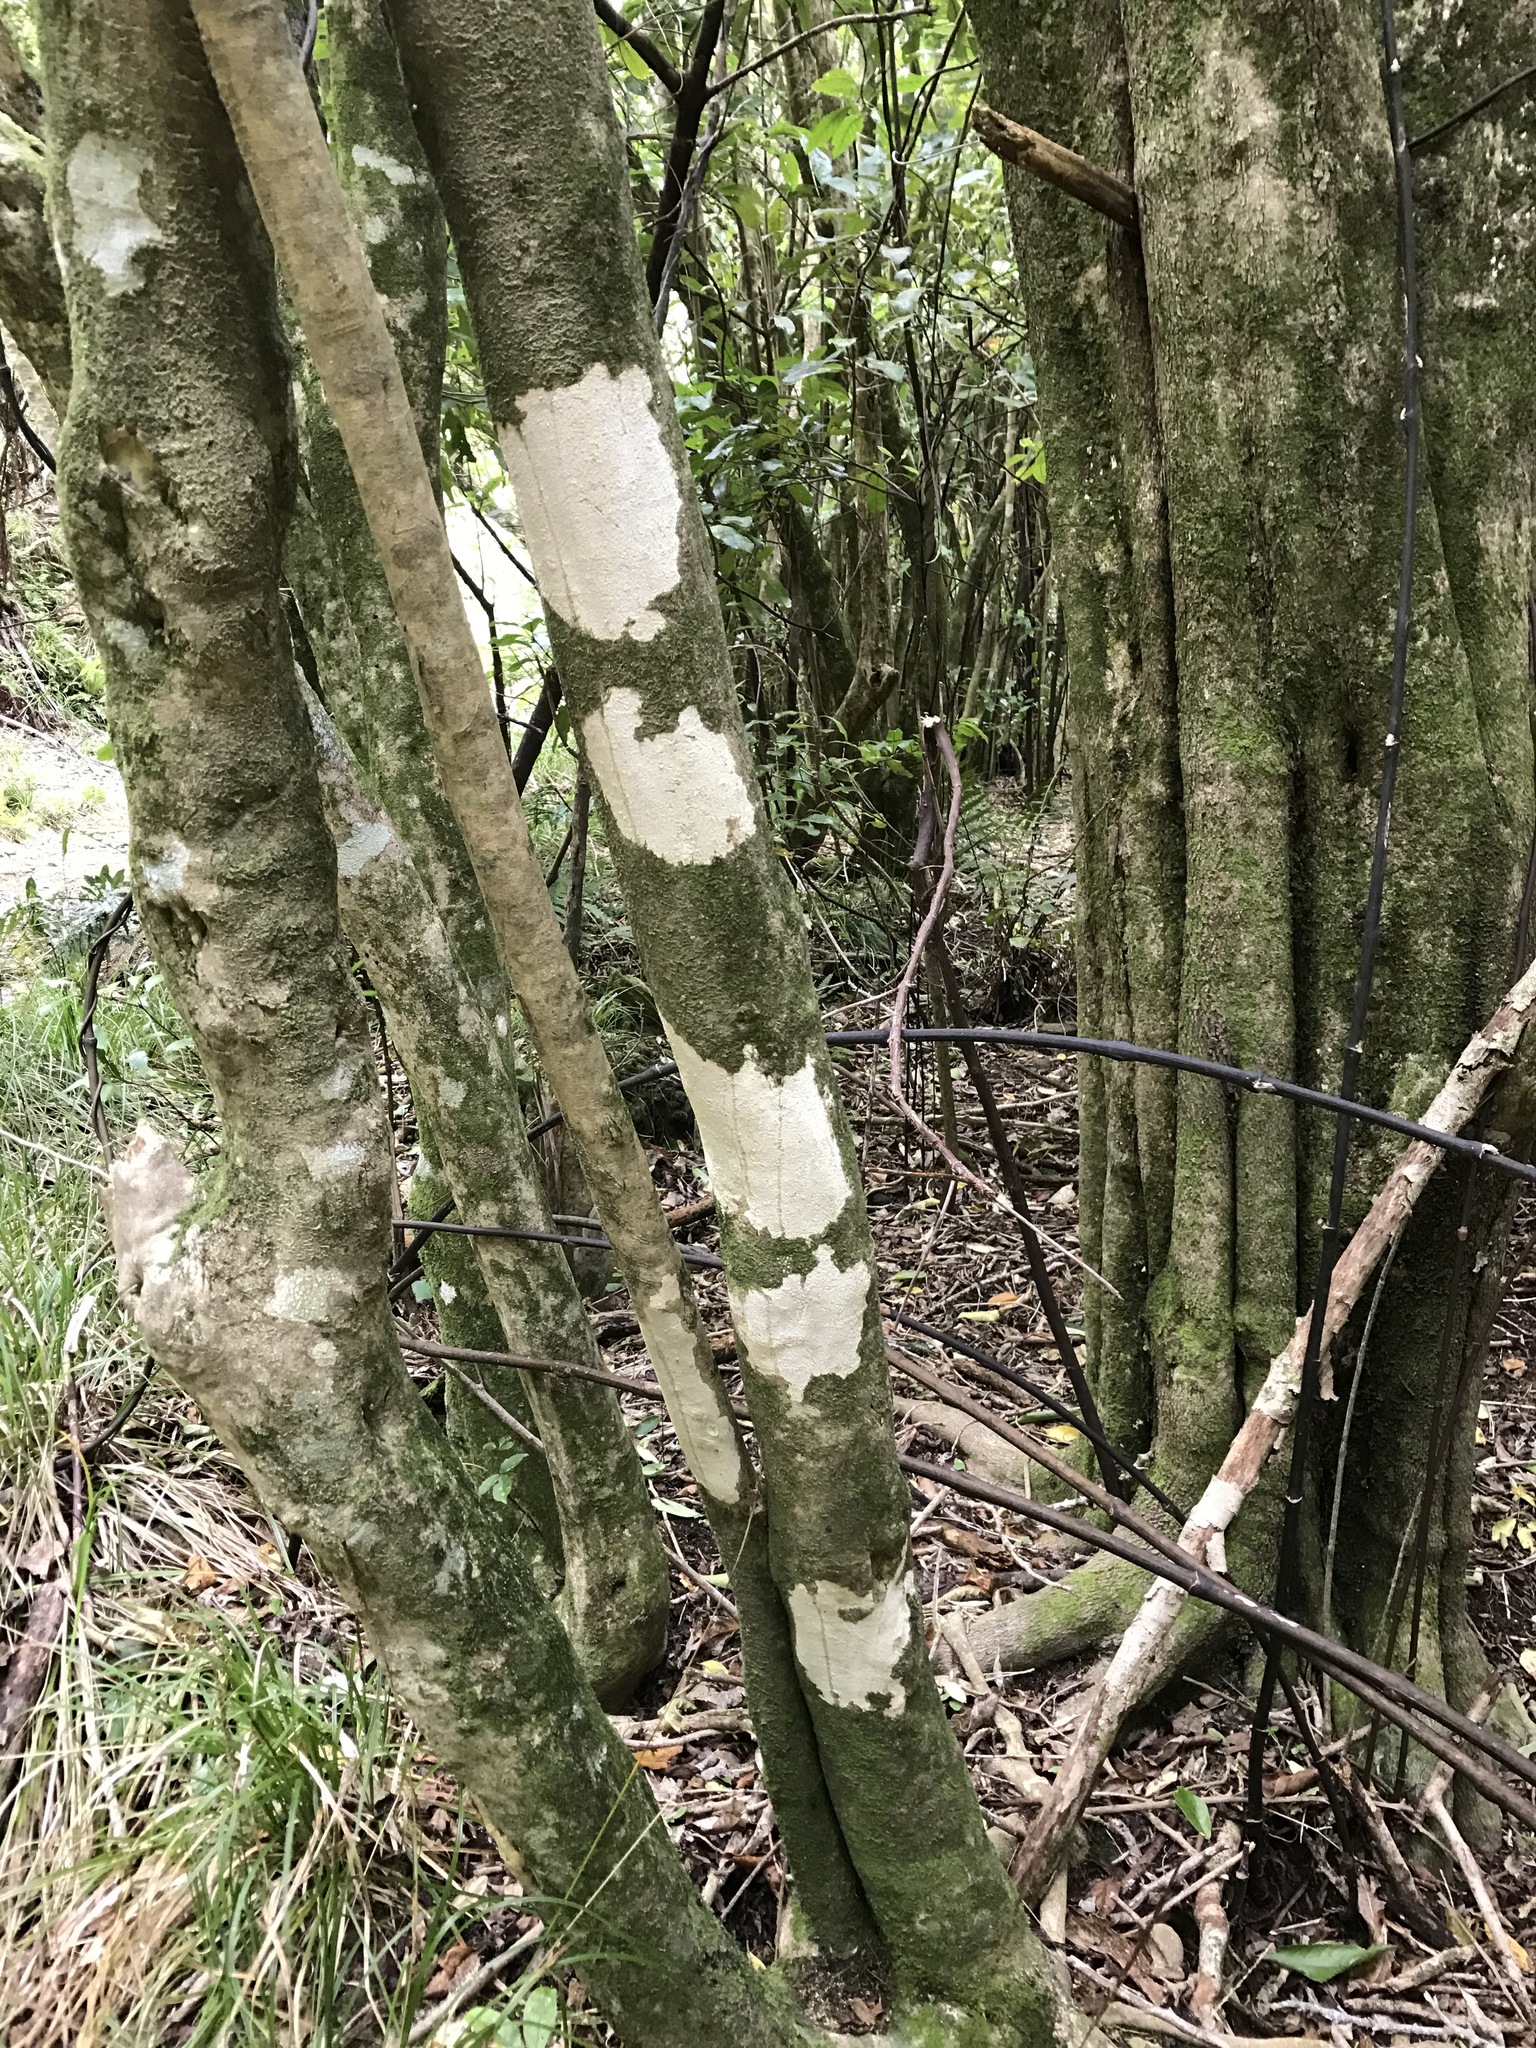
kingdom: Plantae
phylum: Tracheophyta
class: Magnoliopsida
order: Malpighiales
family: Violaceae
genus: Melicytus
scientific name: Melicytus ramiflorus
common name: Mahoe
